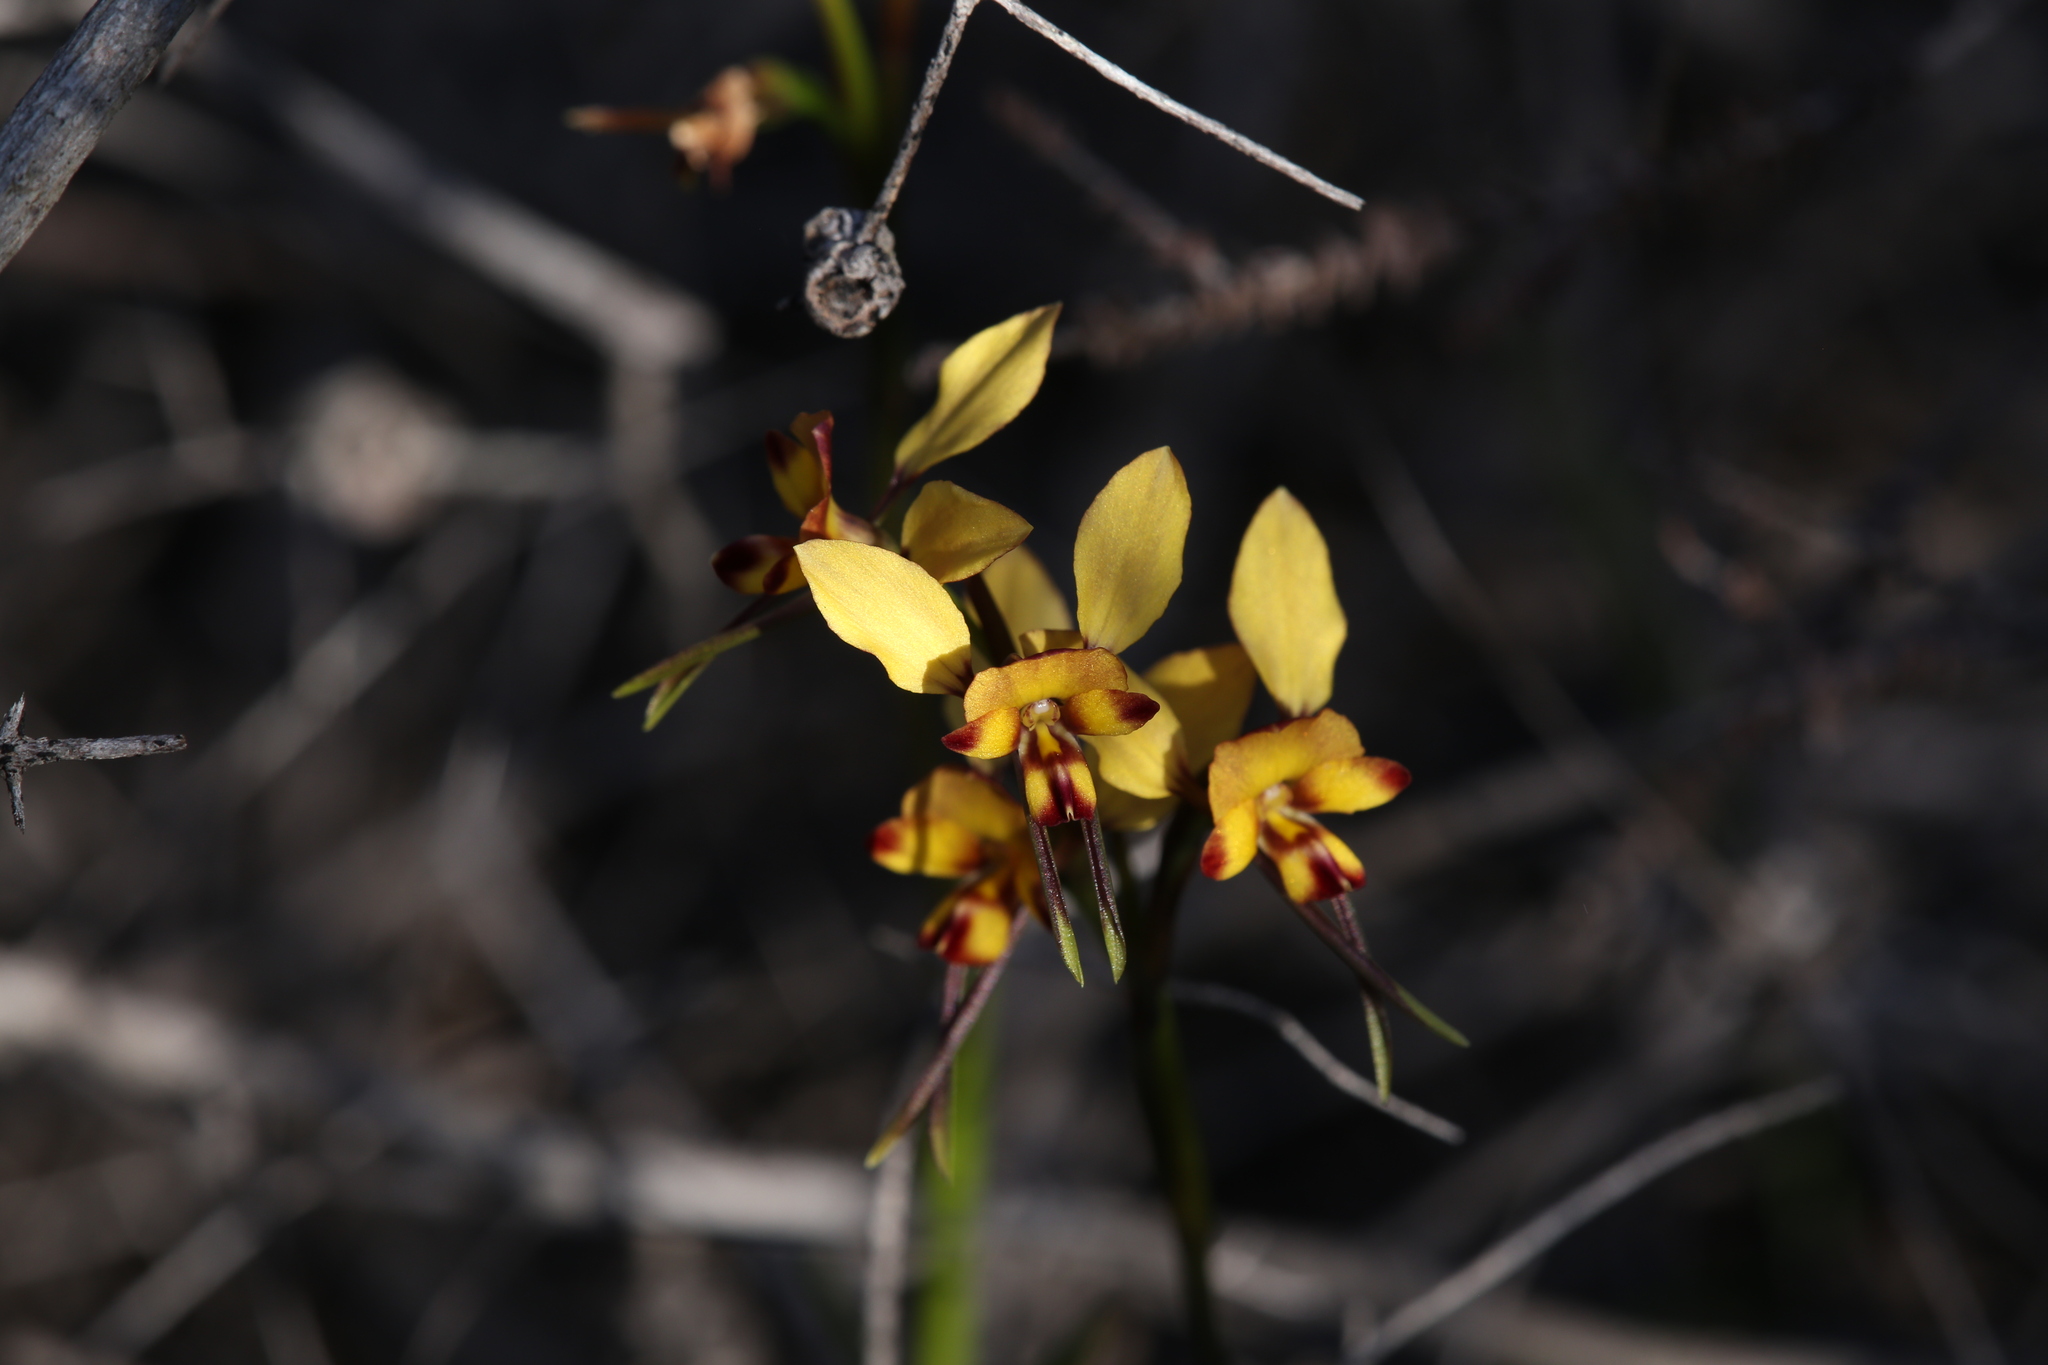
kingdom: Plantae
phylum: Tracheophyta
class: Liliopsida
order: Asparagales
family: Orchidaceae
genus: Diuris
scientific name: Diuris corymbosa
